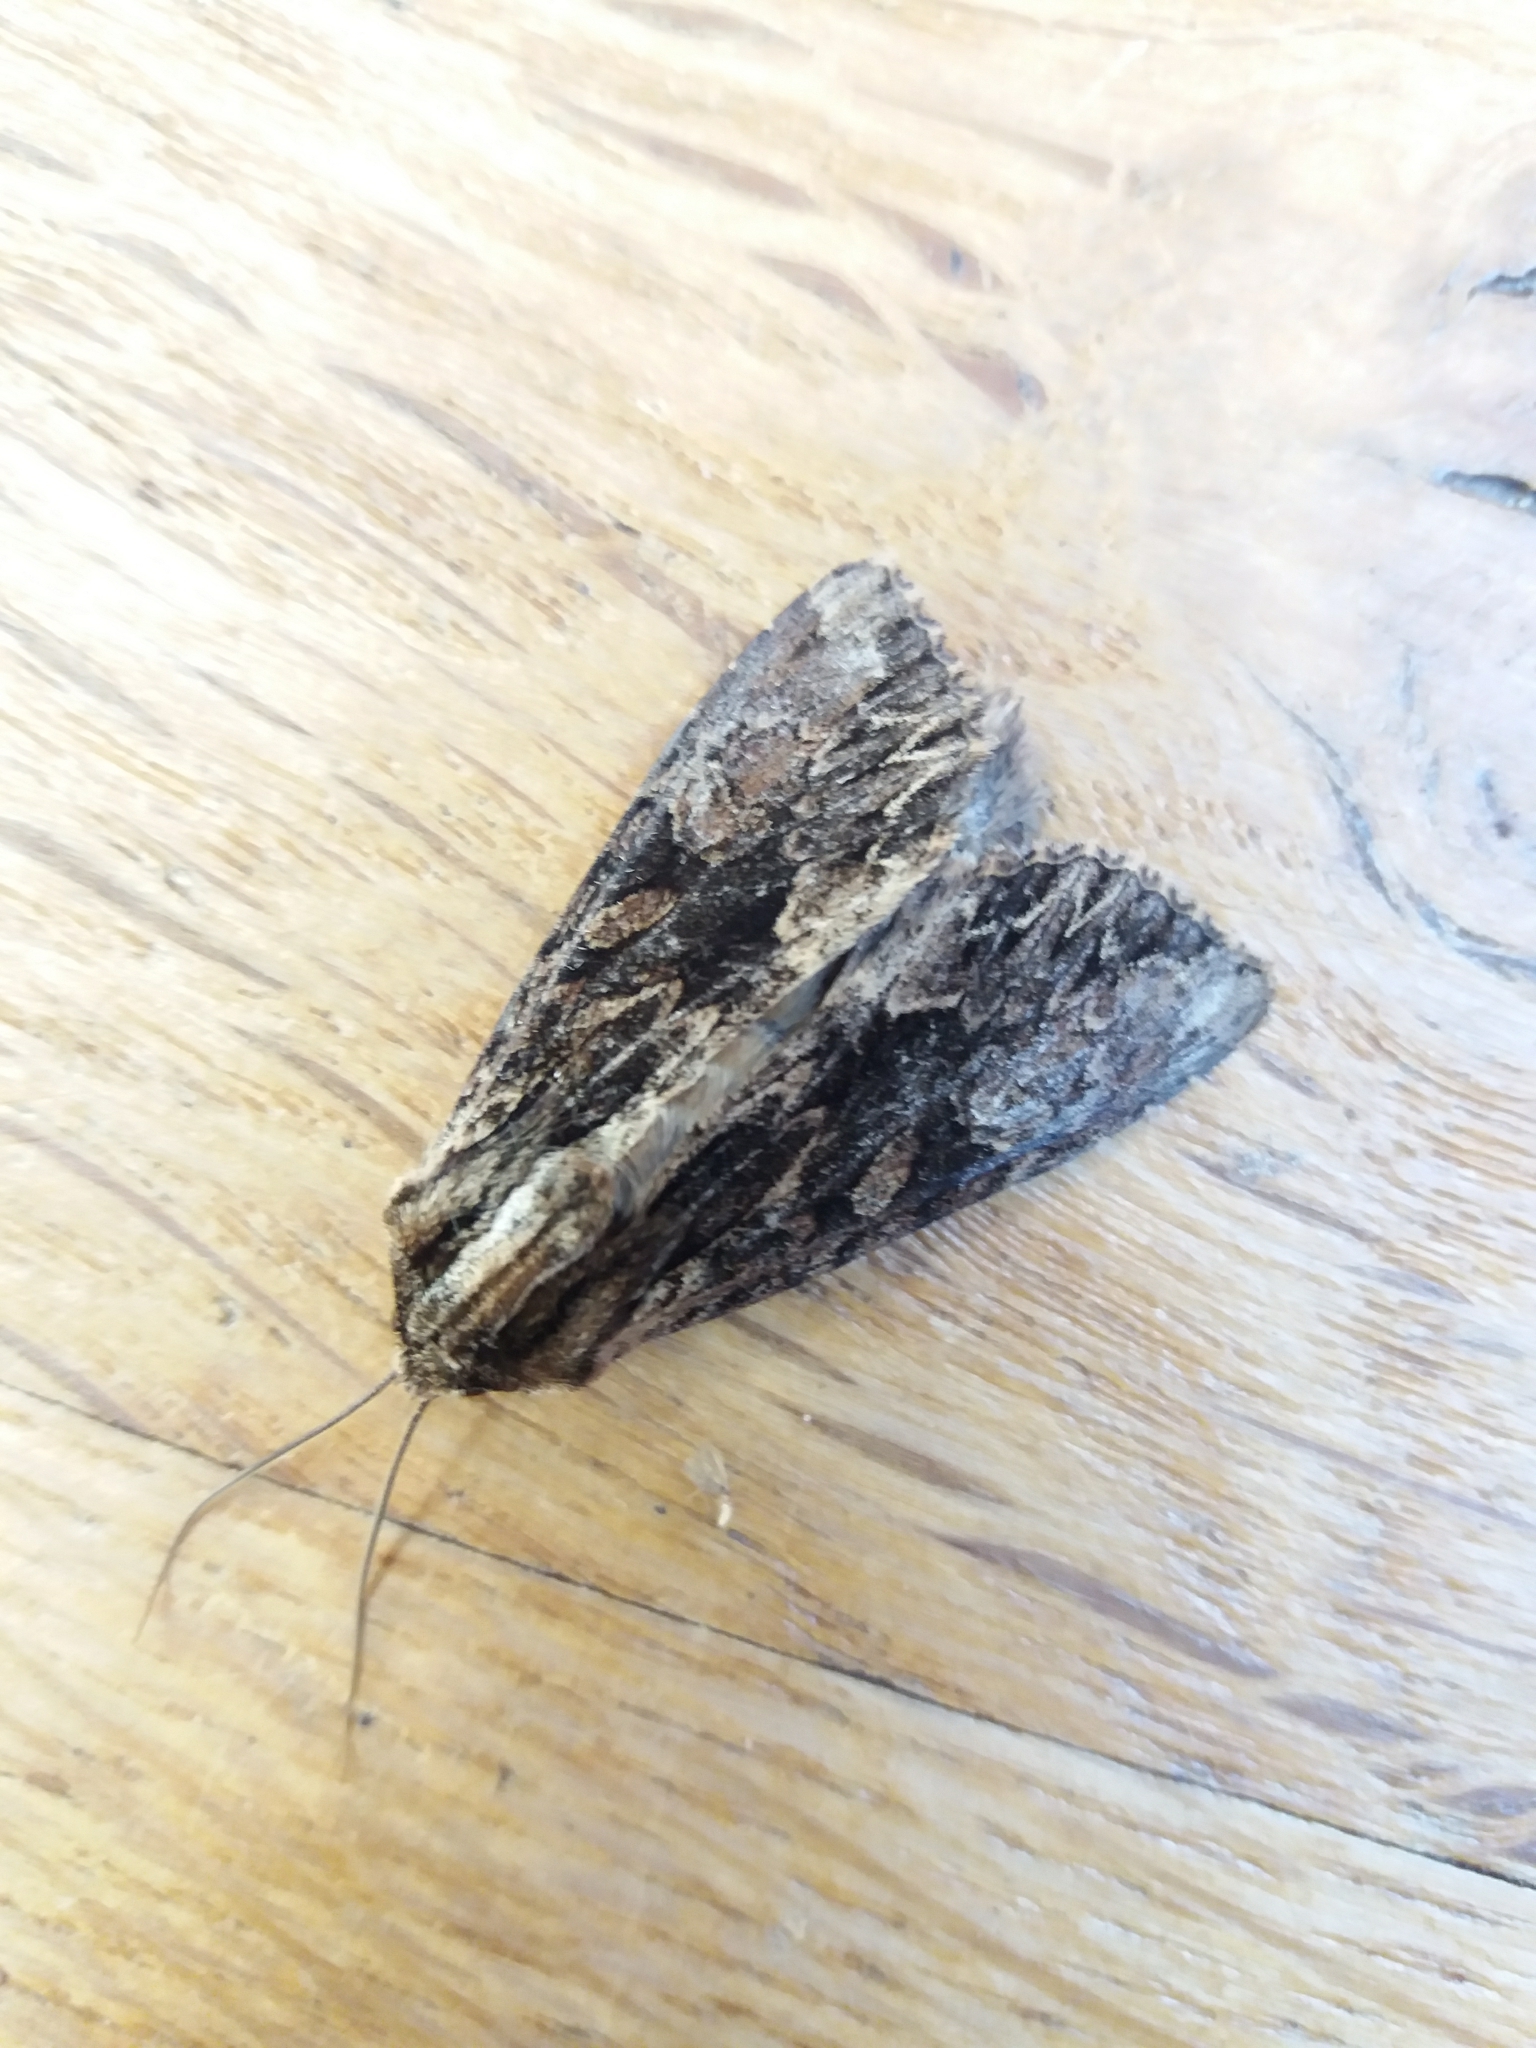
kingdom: Animalia
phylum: Arthropoda
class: Insecta
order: Lepidoptera
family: Noctuidae
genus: Apamea
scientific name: Apamea monoglypha
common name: Dark arches
